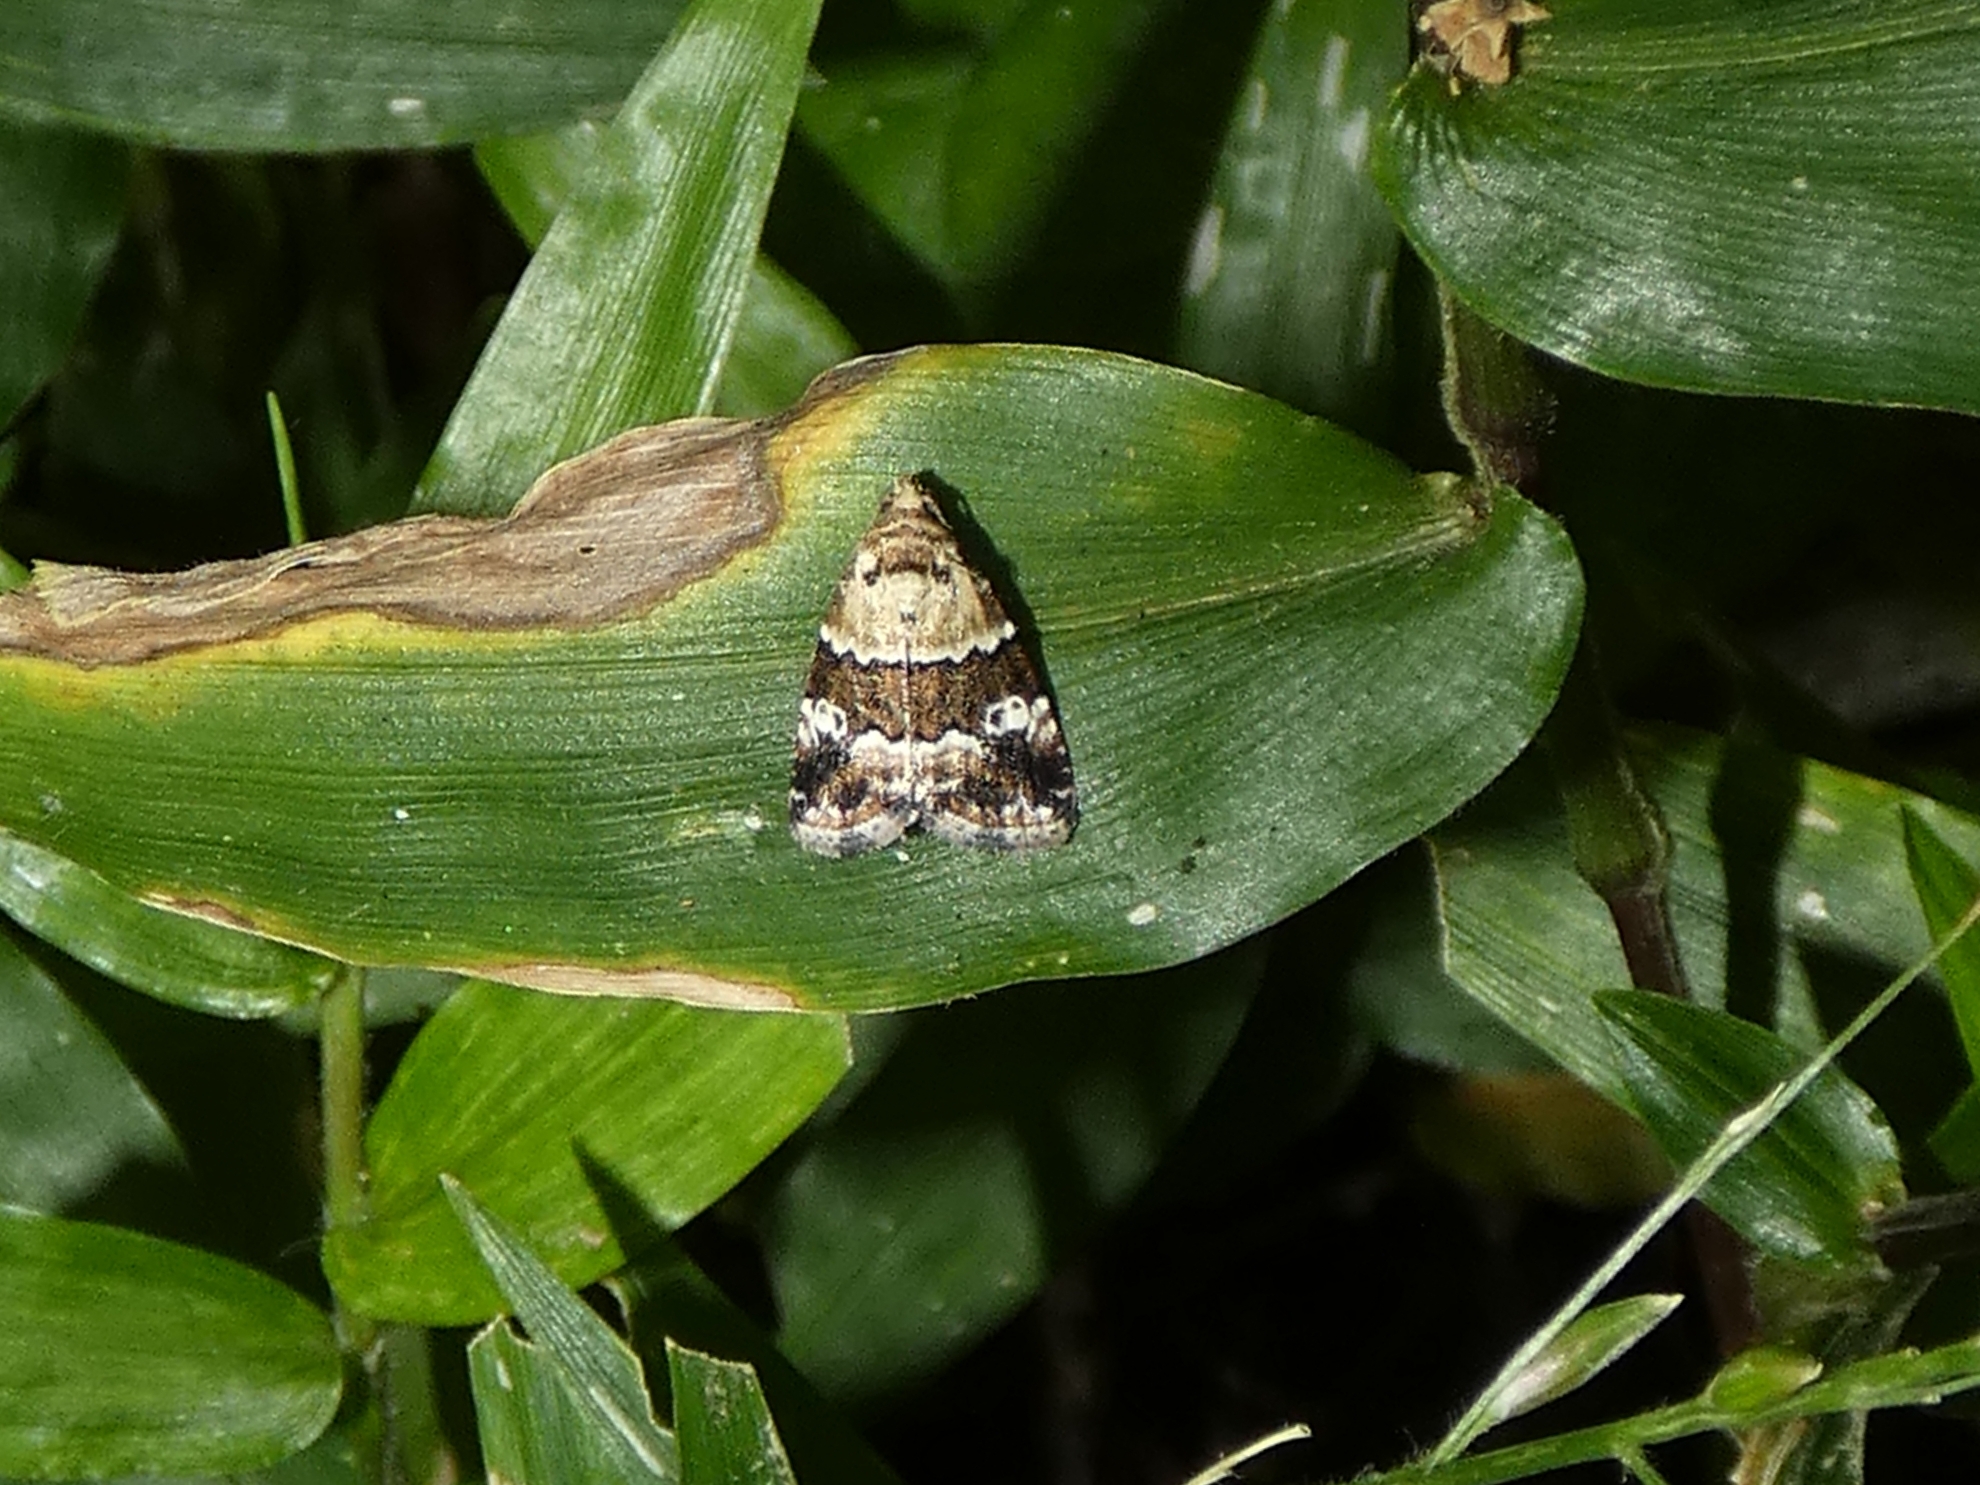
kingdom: Animalia
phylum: Arthropoda
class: Insecta
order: Lepidoptera
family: Noctuidae
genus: Maliattha
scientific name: Maliattha signifera
